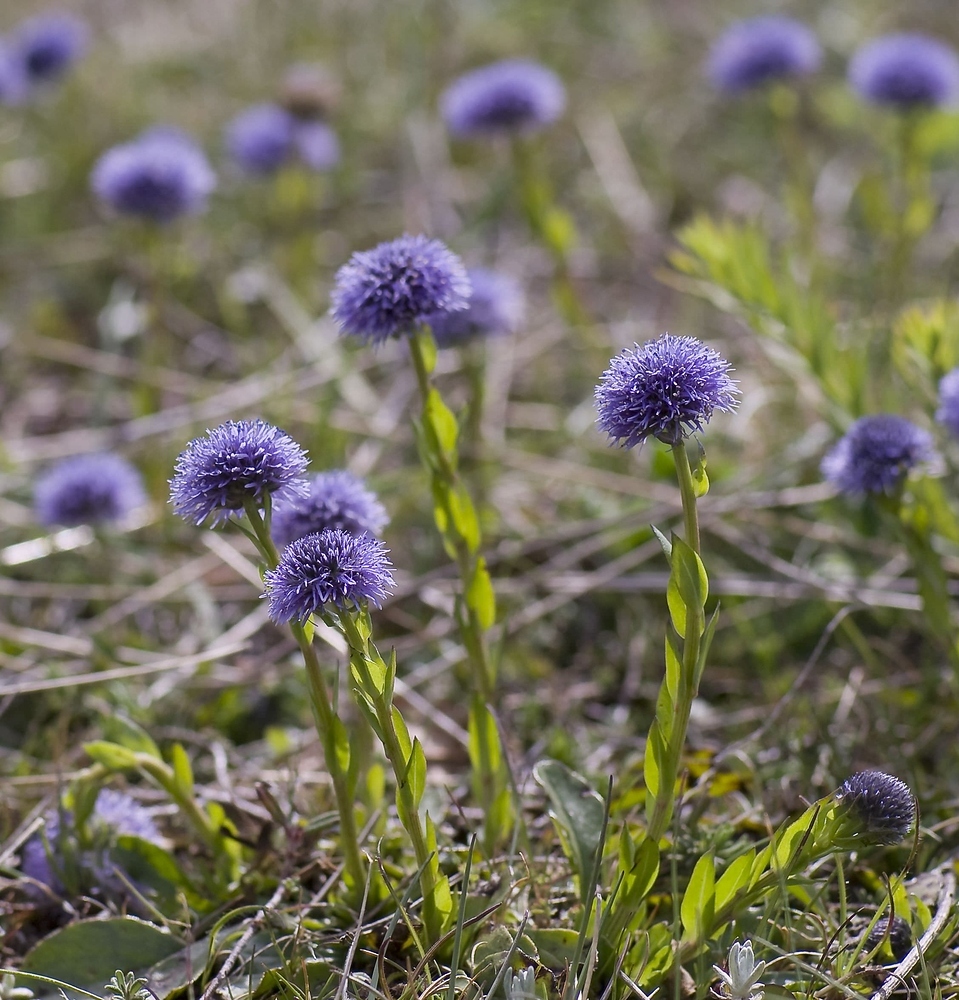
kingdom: Plantae
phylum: Tracheophyta
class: Magnoliopsida
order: Lamiales
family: Plantaginaceae
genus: Globularia
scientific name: Globularia bisnagarica
